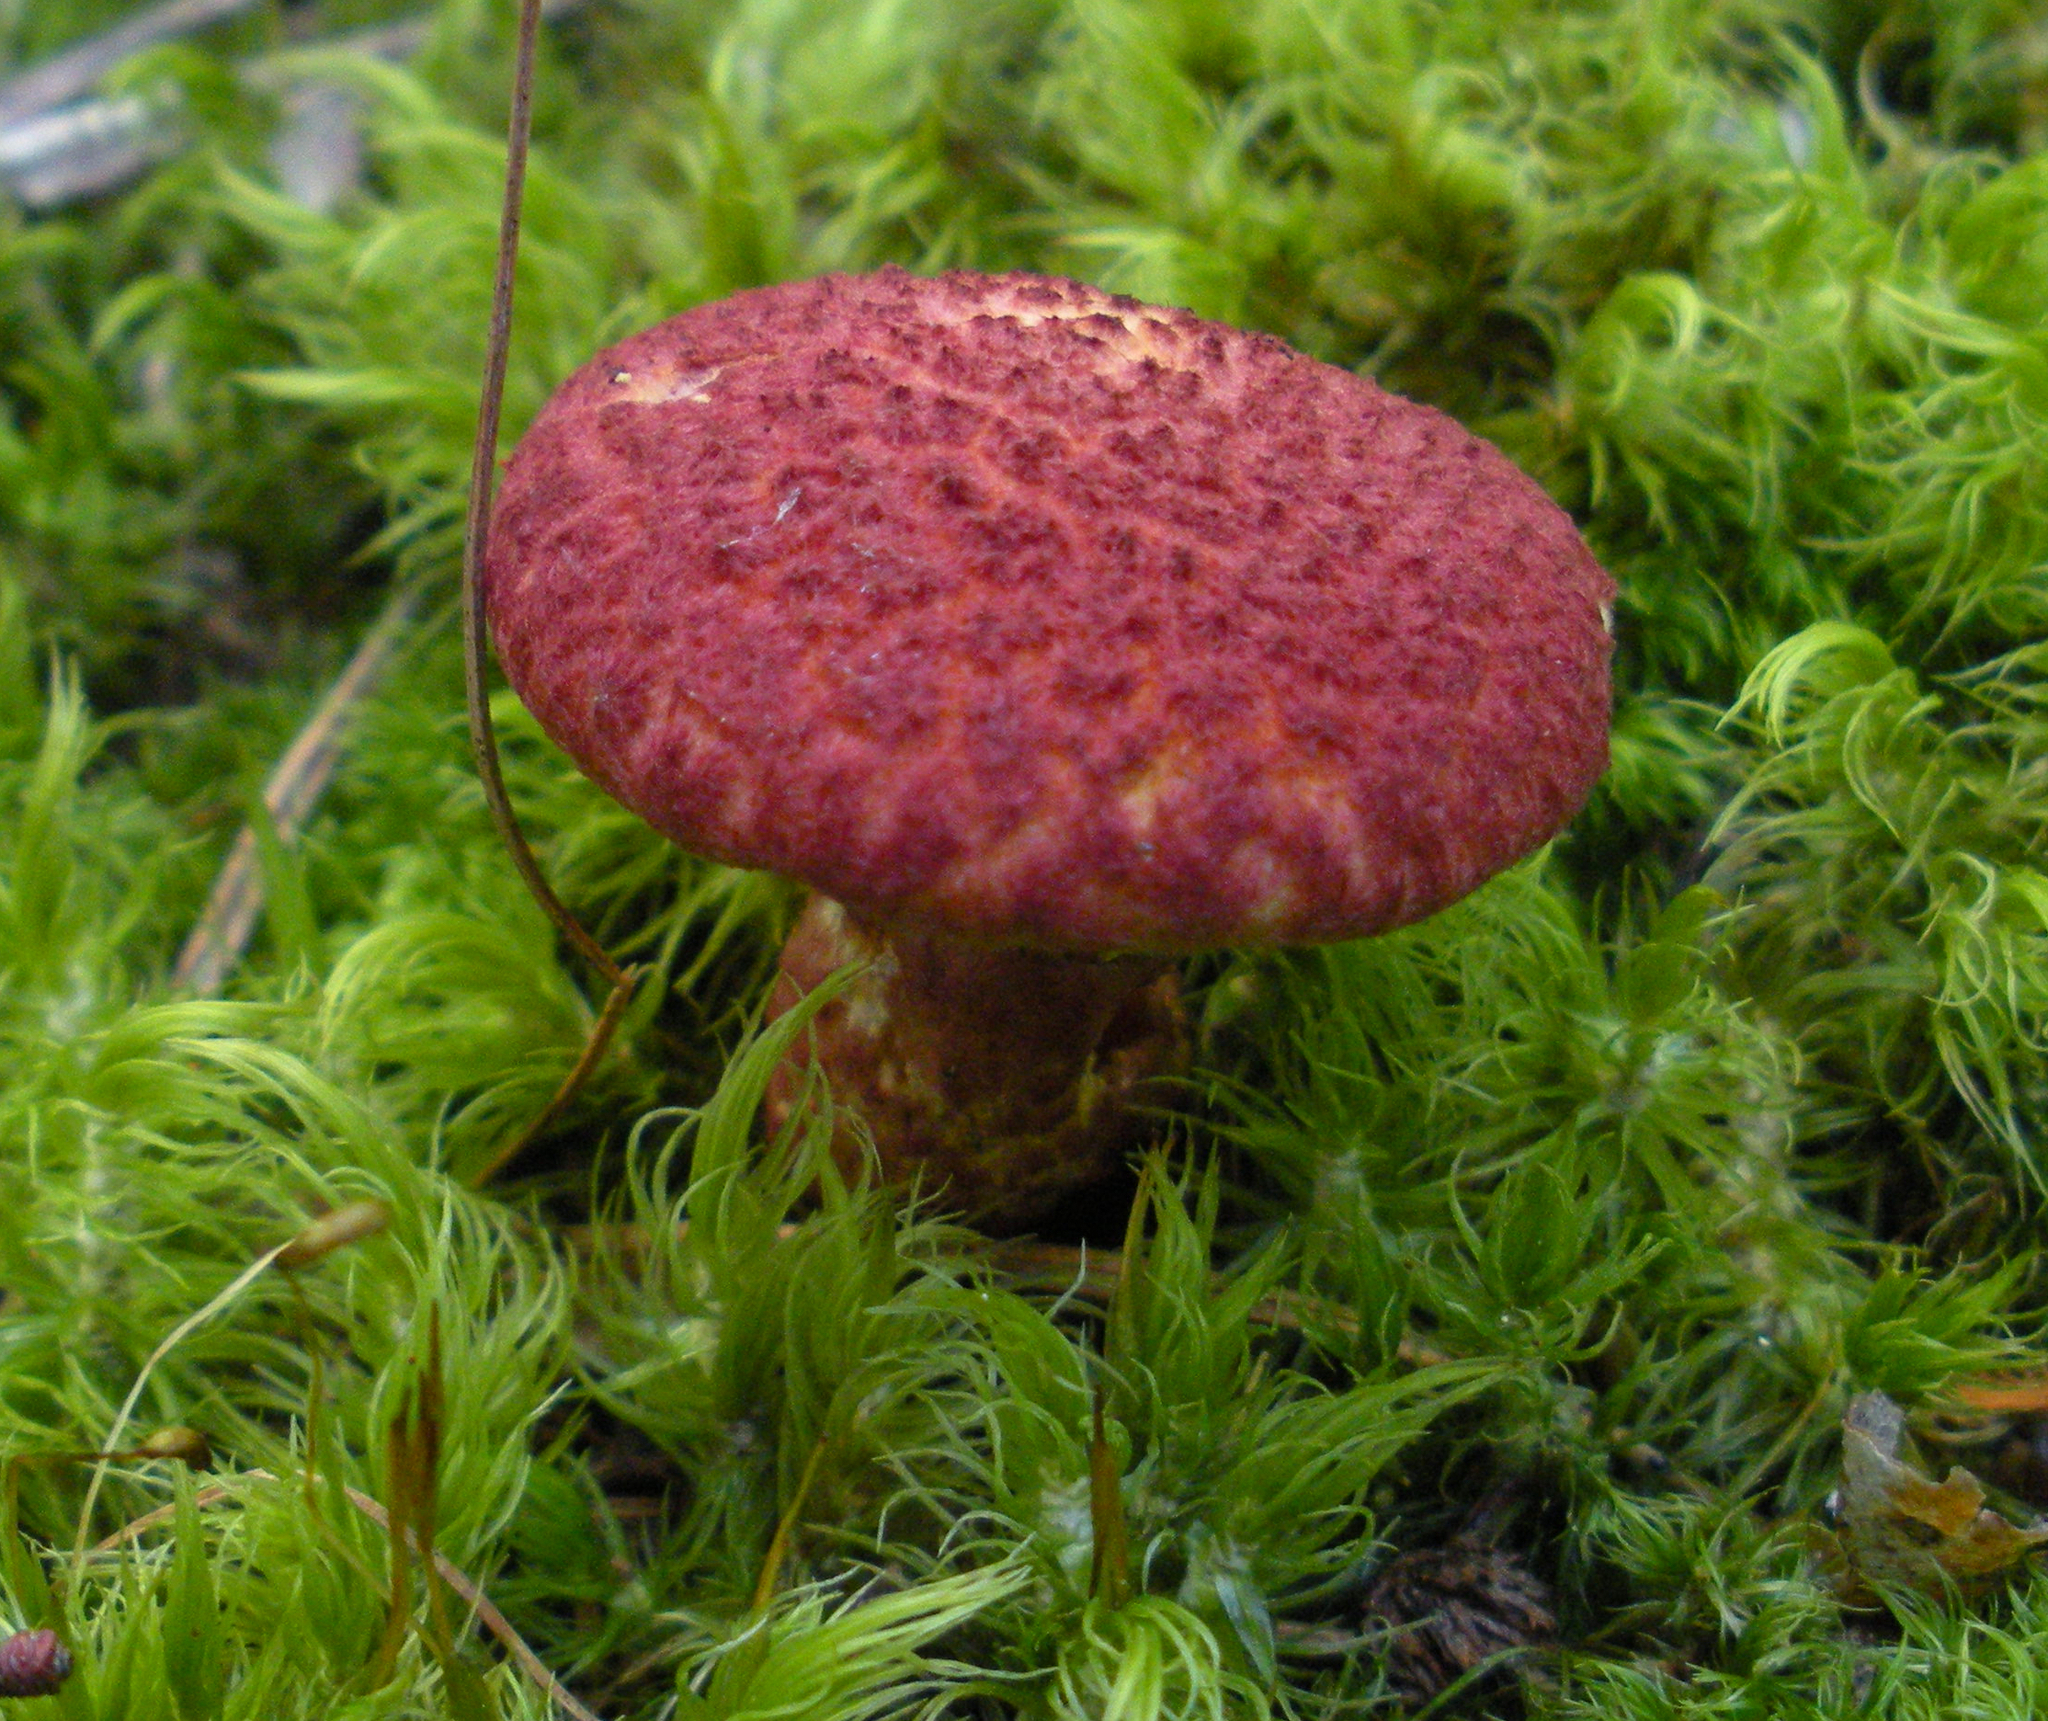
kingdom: Fungi
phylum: Basidiomycota
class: Agaricomycetes
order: Boletales
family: Suillaceae
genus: Suillus
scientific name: Suillus spraguei
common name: Painted suillus
